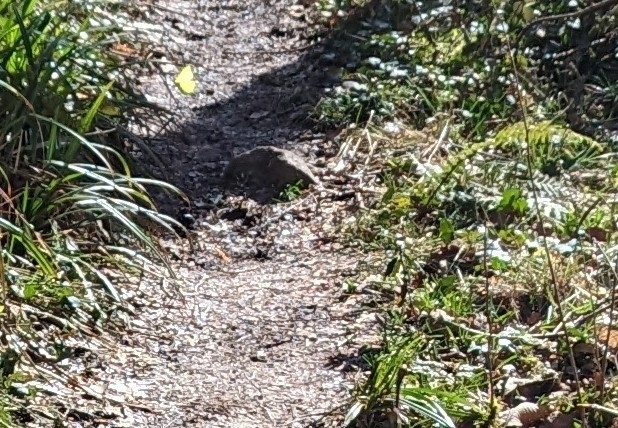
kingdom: Animalia
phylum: Arthropoda
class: Insecta
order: Lepidoptera
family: Pieridae
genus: Gonepteryx
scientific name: Gonepteryx rhamni
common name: Brimstone
